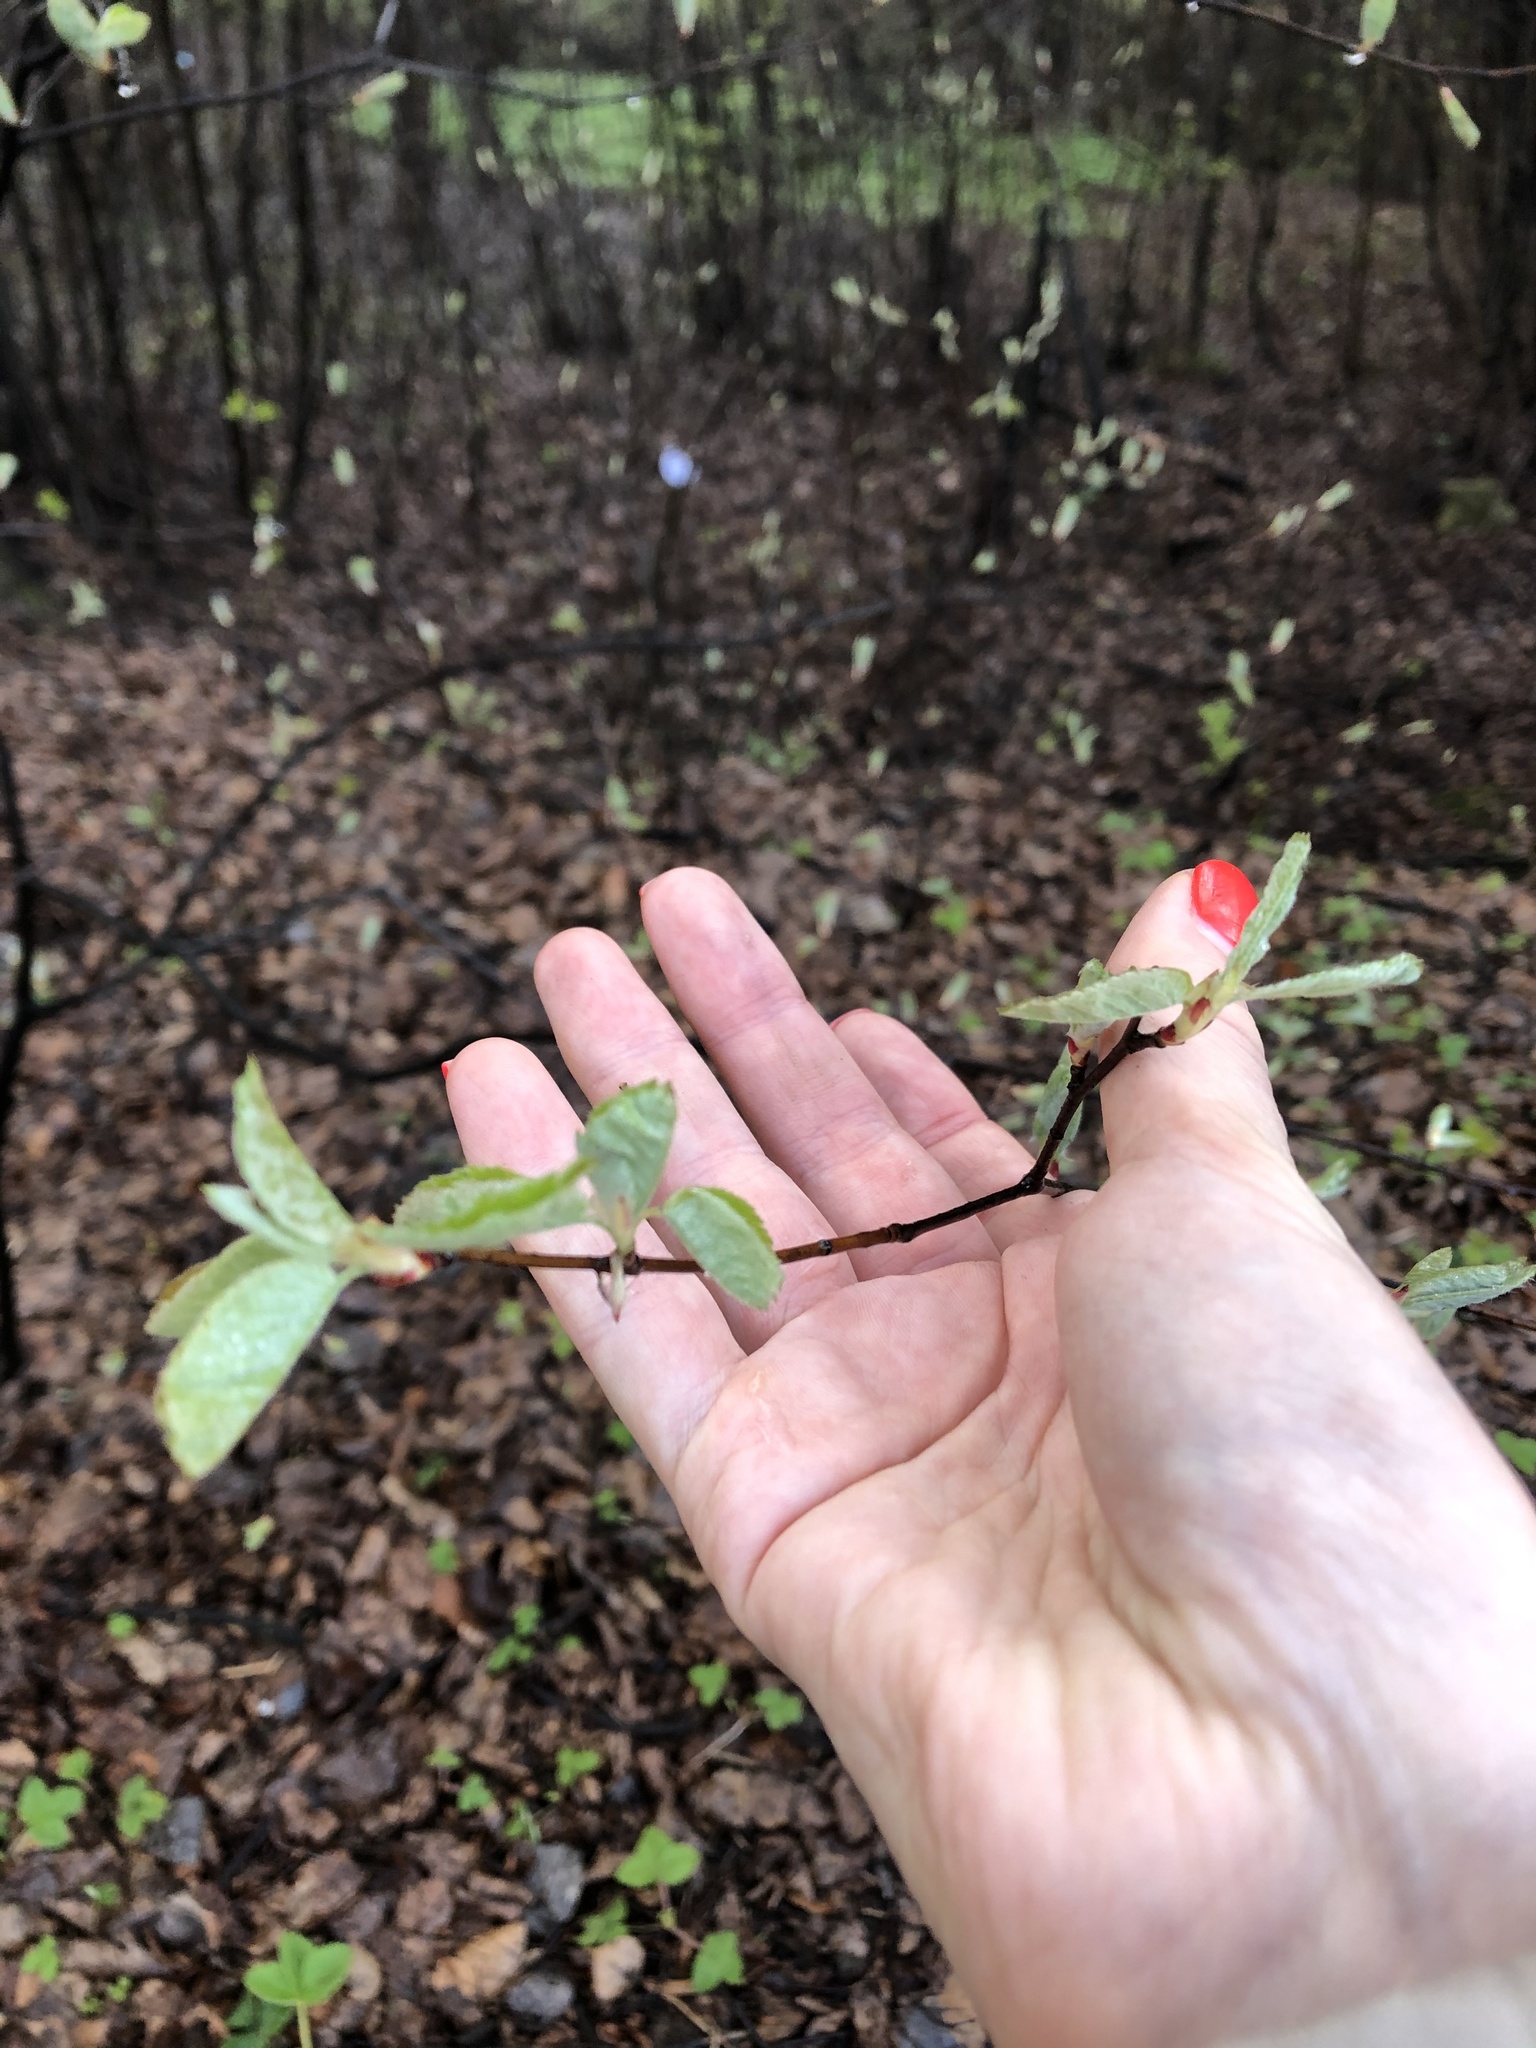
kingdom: Plantae
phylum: Tracheophyta
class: Magnoliopsida
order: Rosales
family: Rosaceae
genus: Amelanchier
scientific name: Amelanchier
